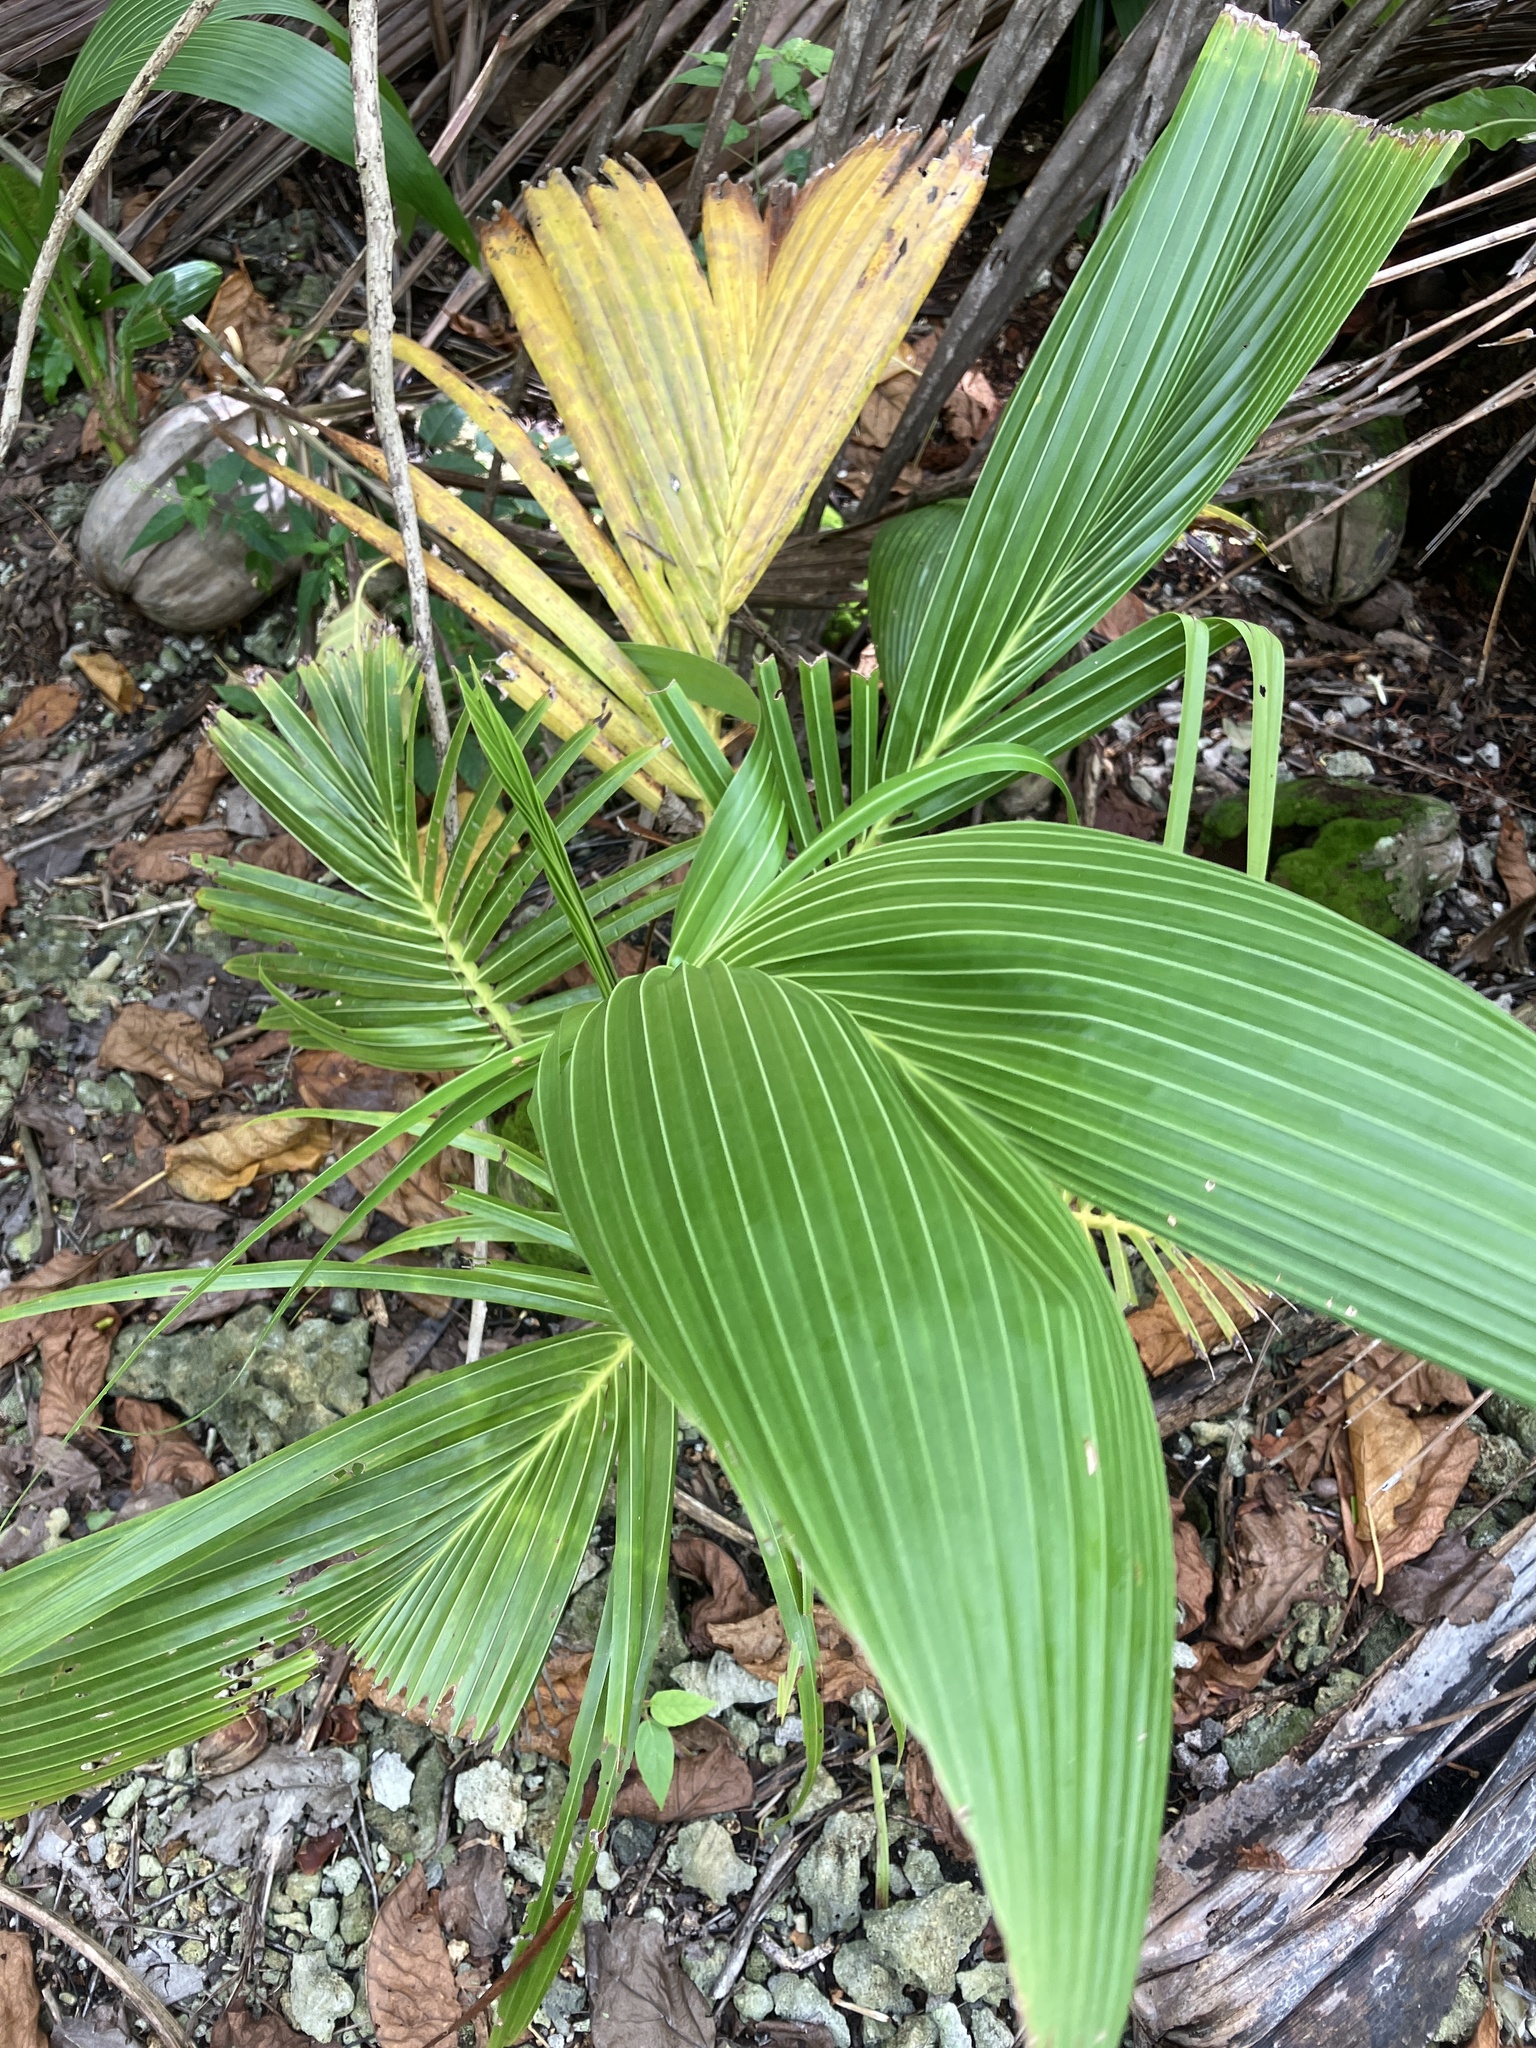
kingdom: Plantae
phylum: Tracheophyta
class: Liliopsida
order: Arecales
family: Arecaceae
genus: Cocos
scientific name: Cocos nucifera
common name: Coconut palm
